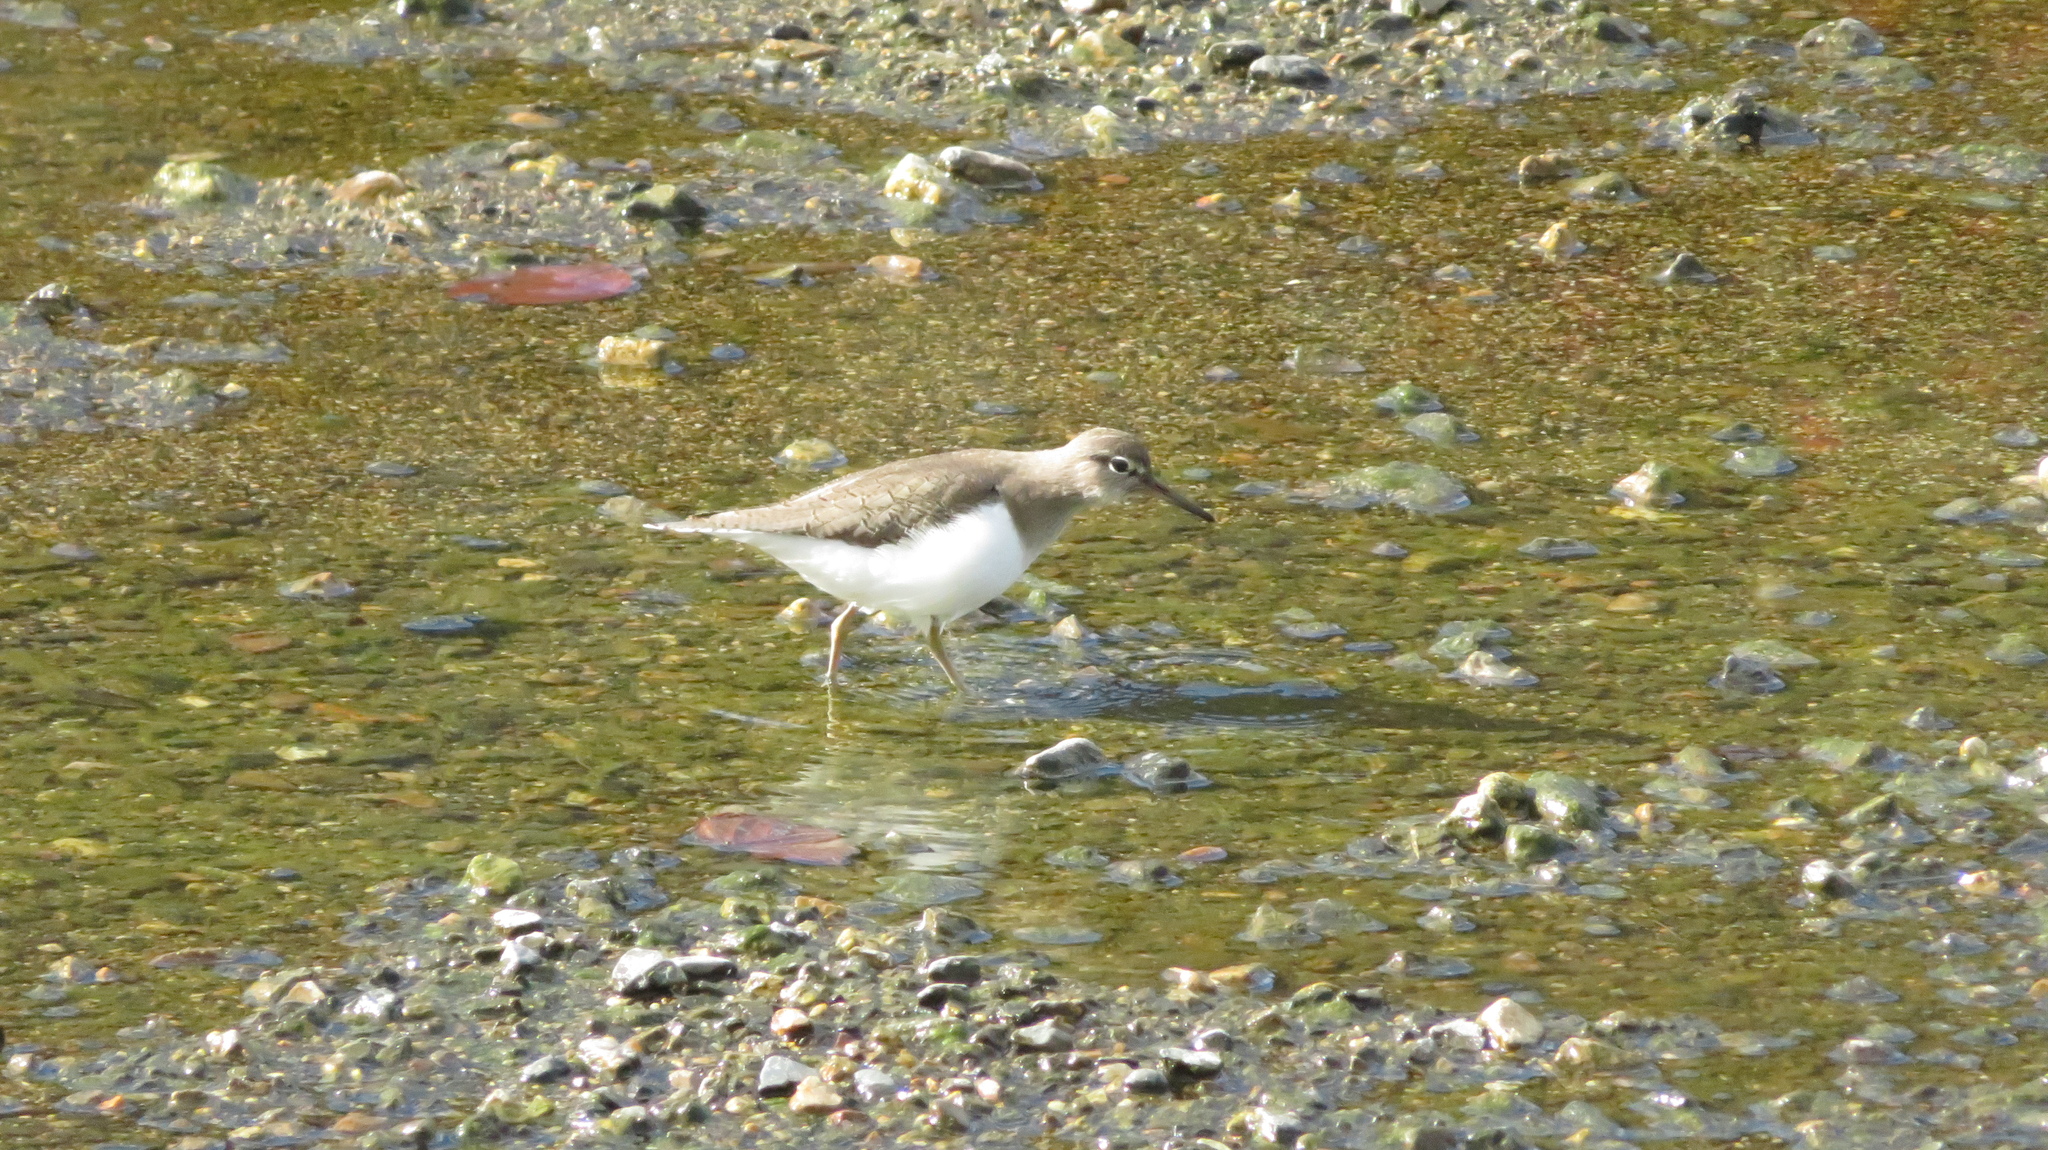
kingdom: Animalia
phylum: Chordata
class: Aves
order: Charadriiformes
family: Scolopacidae
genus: Actitis
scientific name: Actitis hypoleucos
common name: Common sandpiper
